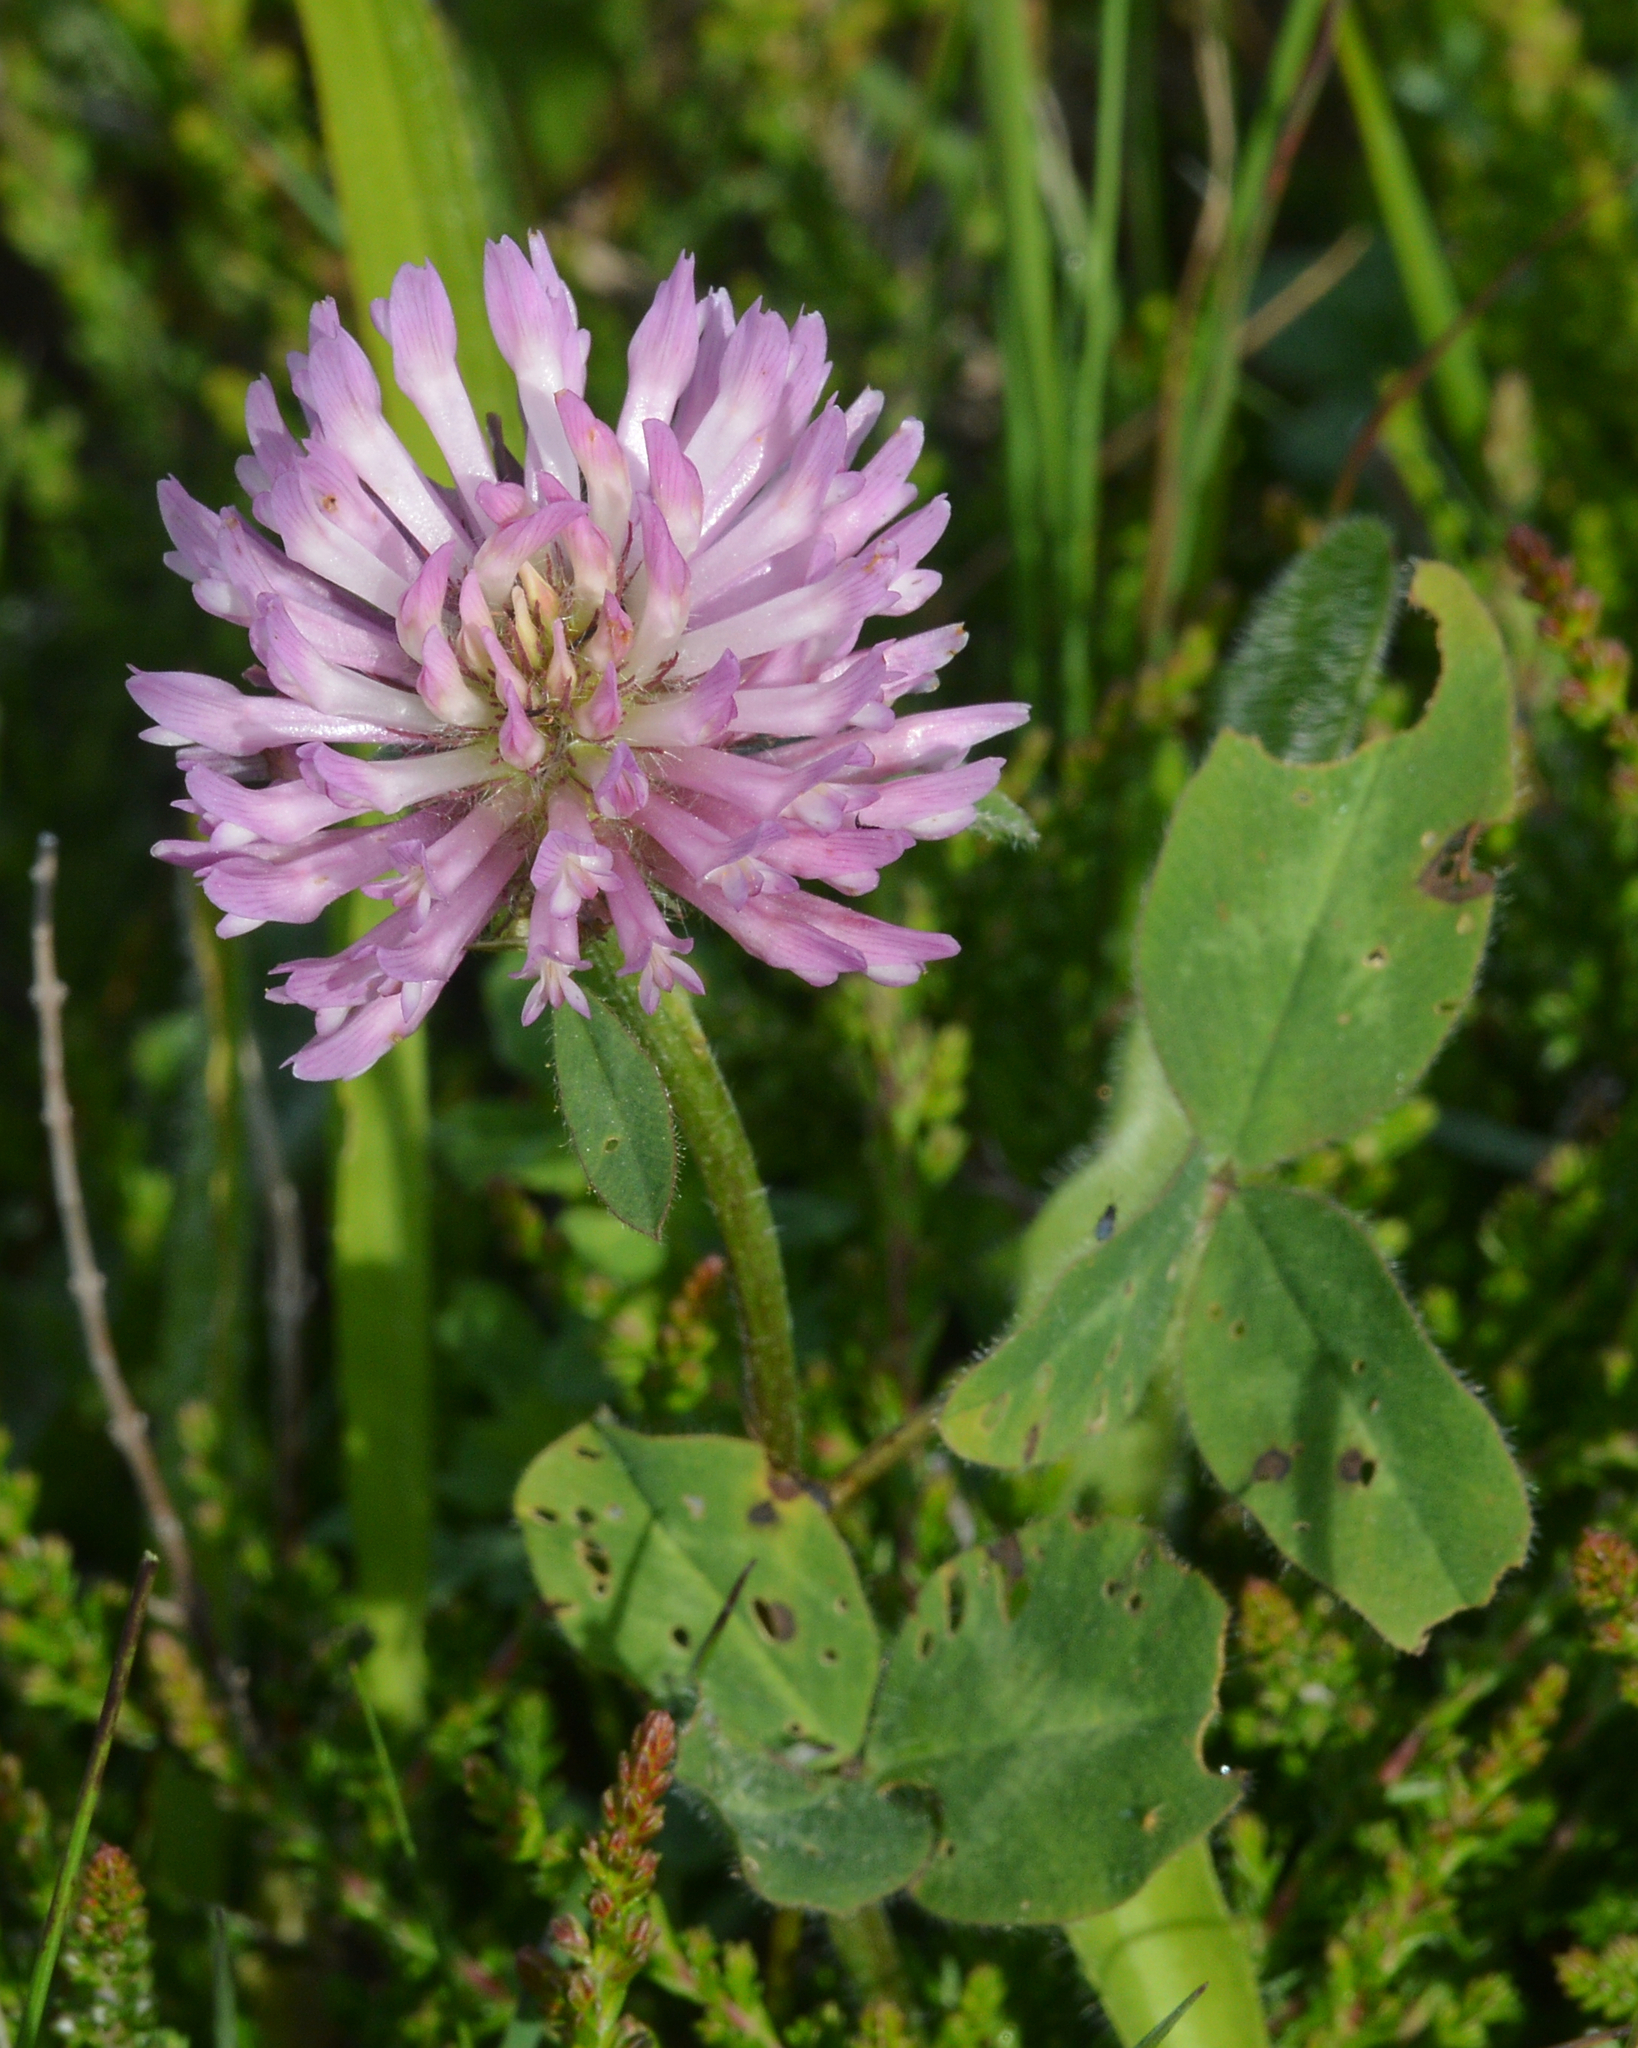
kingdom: Plantae
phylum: Tracheophyta
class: Magnoliopsida
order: Fabales
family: Fabaceae
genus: Trifolium
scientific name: Trifolium pratense
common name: Red clover
